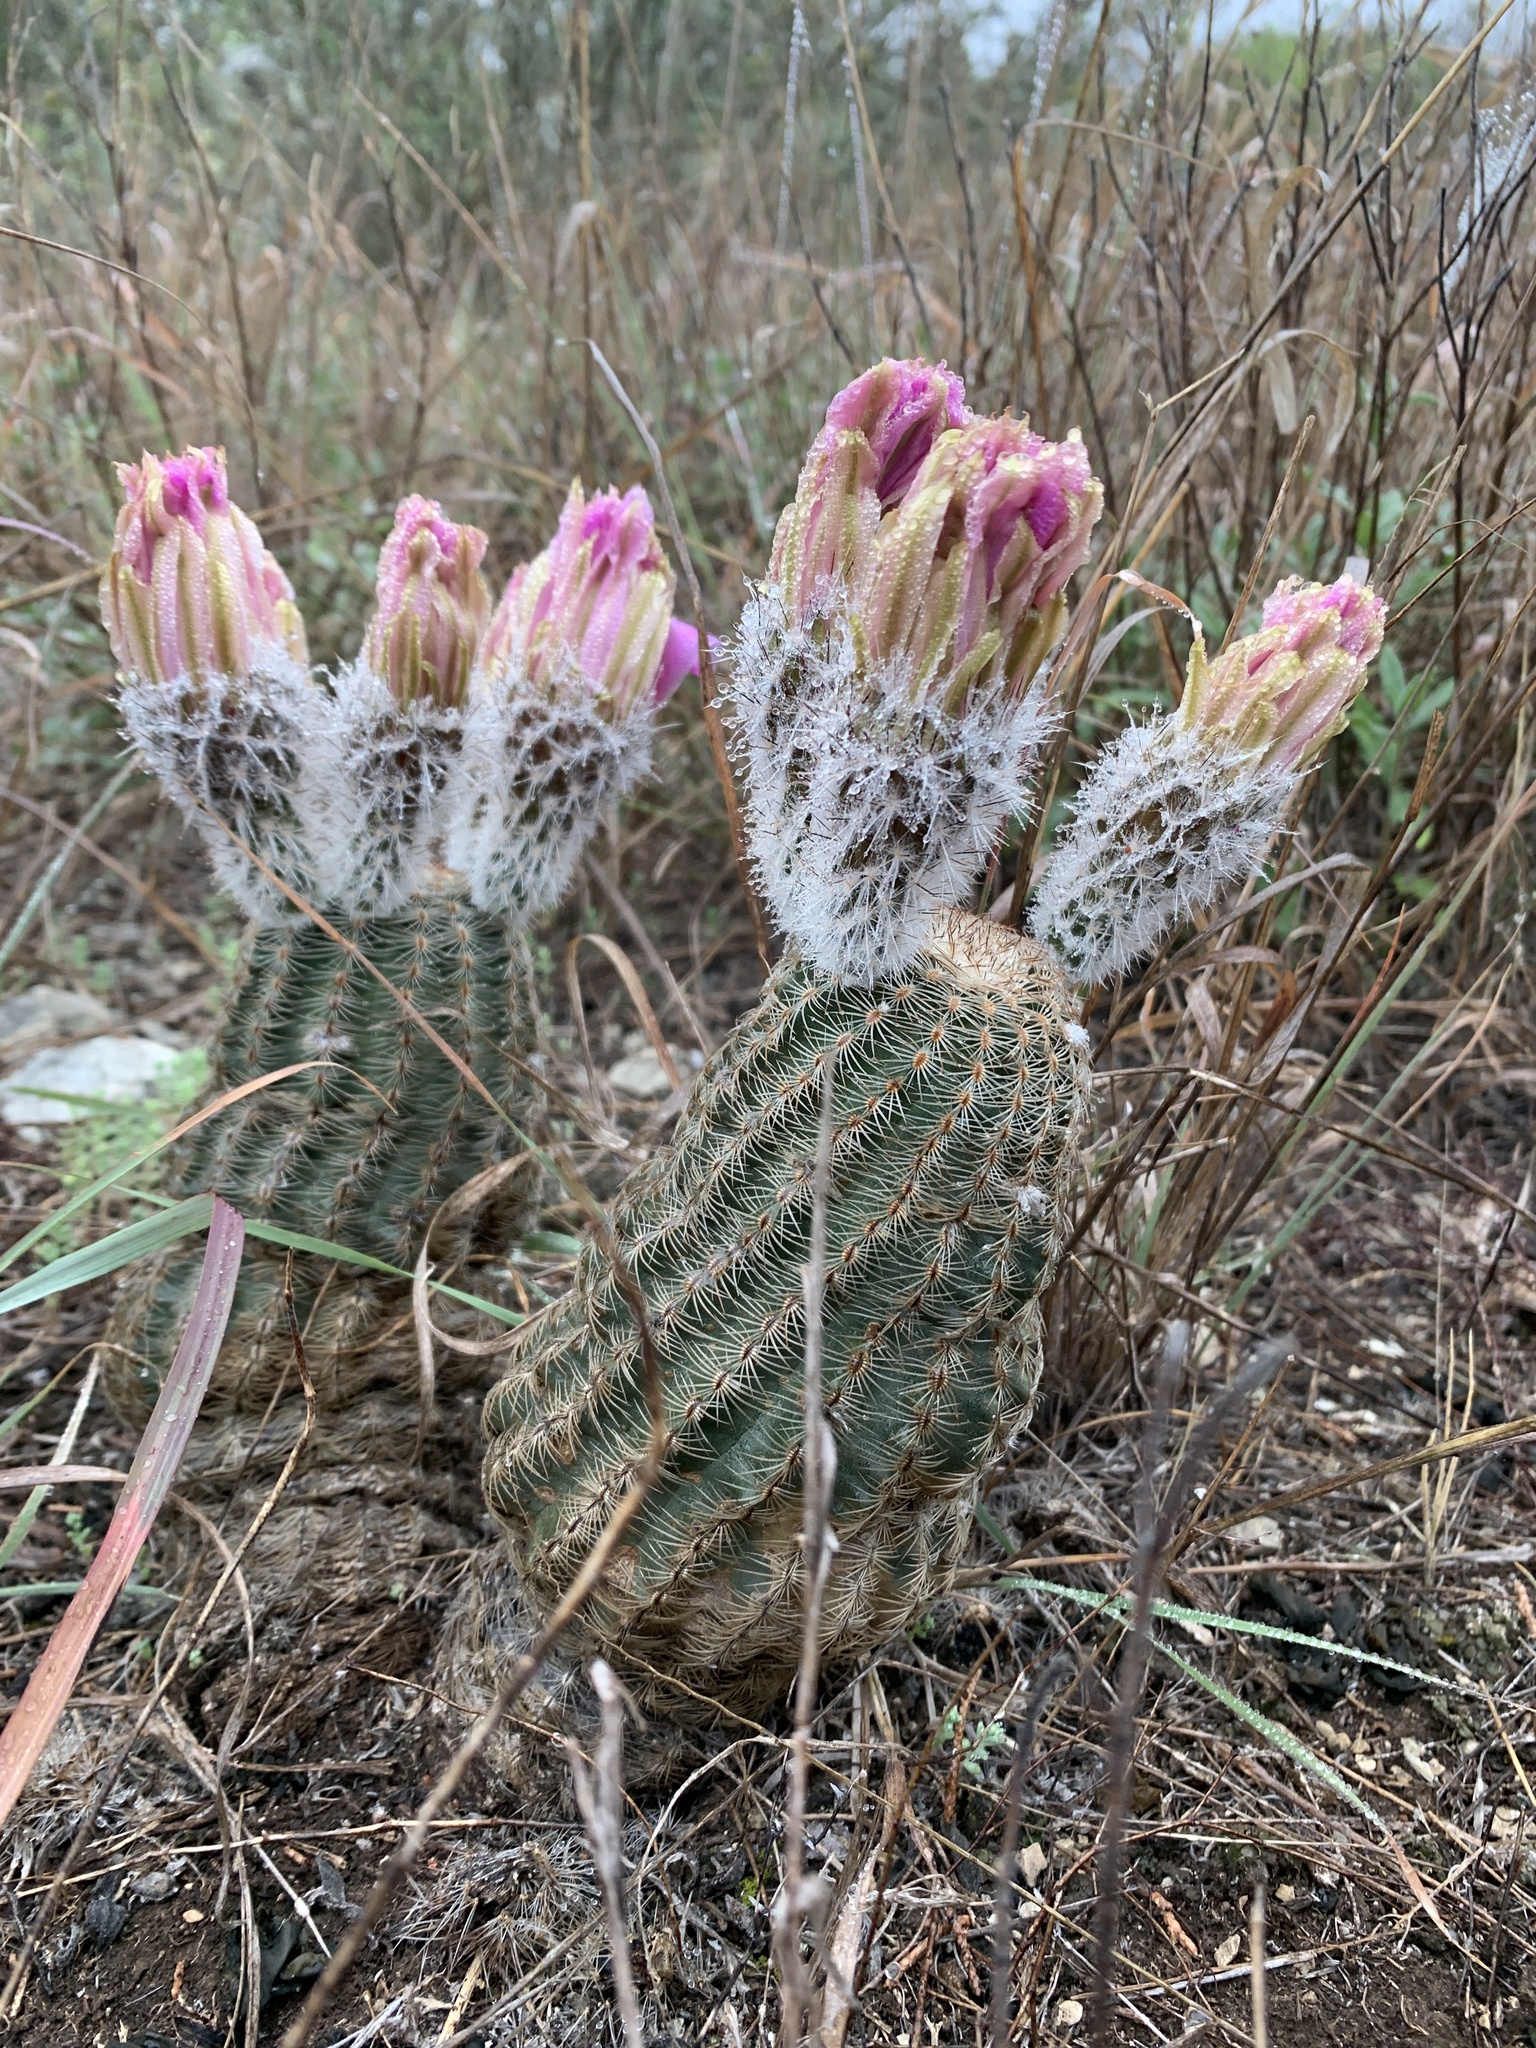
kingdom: Plantae
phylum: Tracheophyta
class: Magnoliopsida
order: Caryophyllales
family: Cactaceae
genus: Echinocereus
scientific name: Echinocereus reichenbachii
